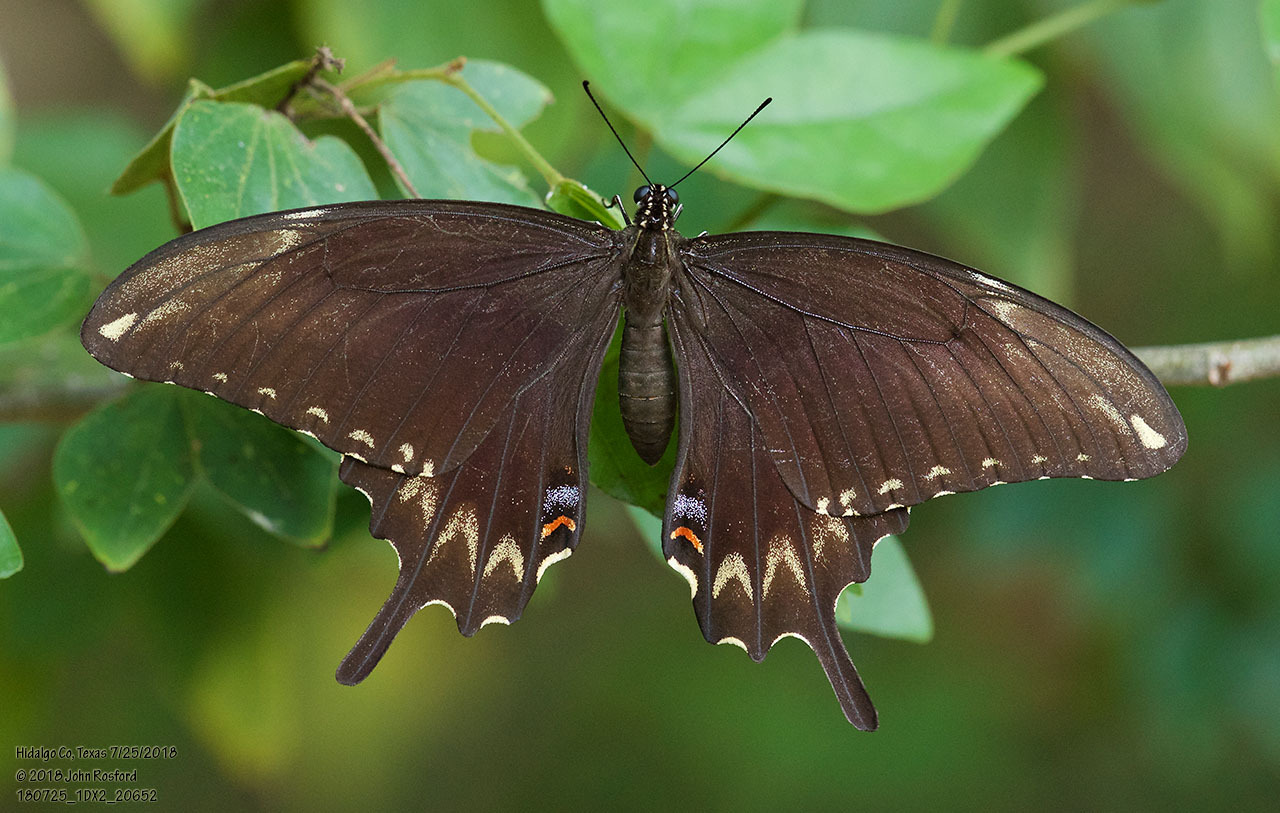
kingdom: Animalia
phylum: Arthropoda
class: Insecta
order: Lepidoptera
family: Papilionidae
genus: Papilio
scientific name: Papilio ornythion
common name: Ornythion swallowtail
